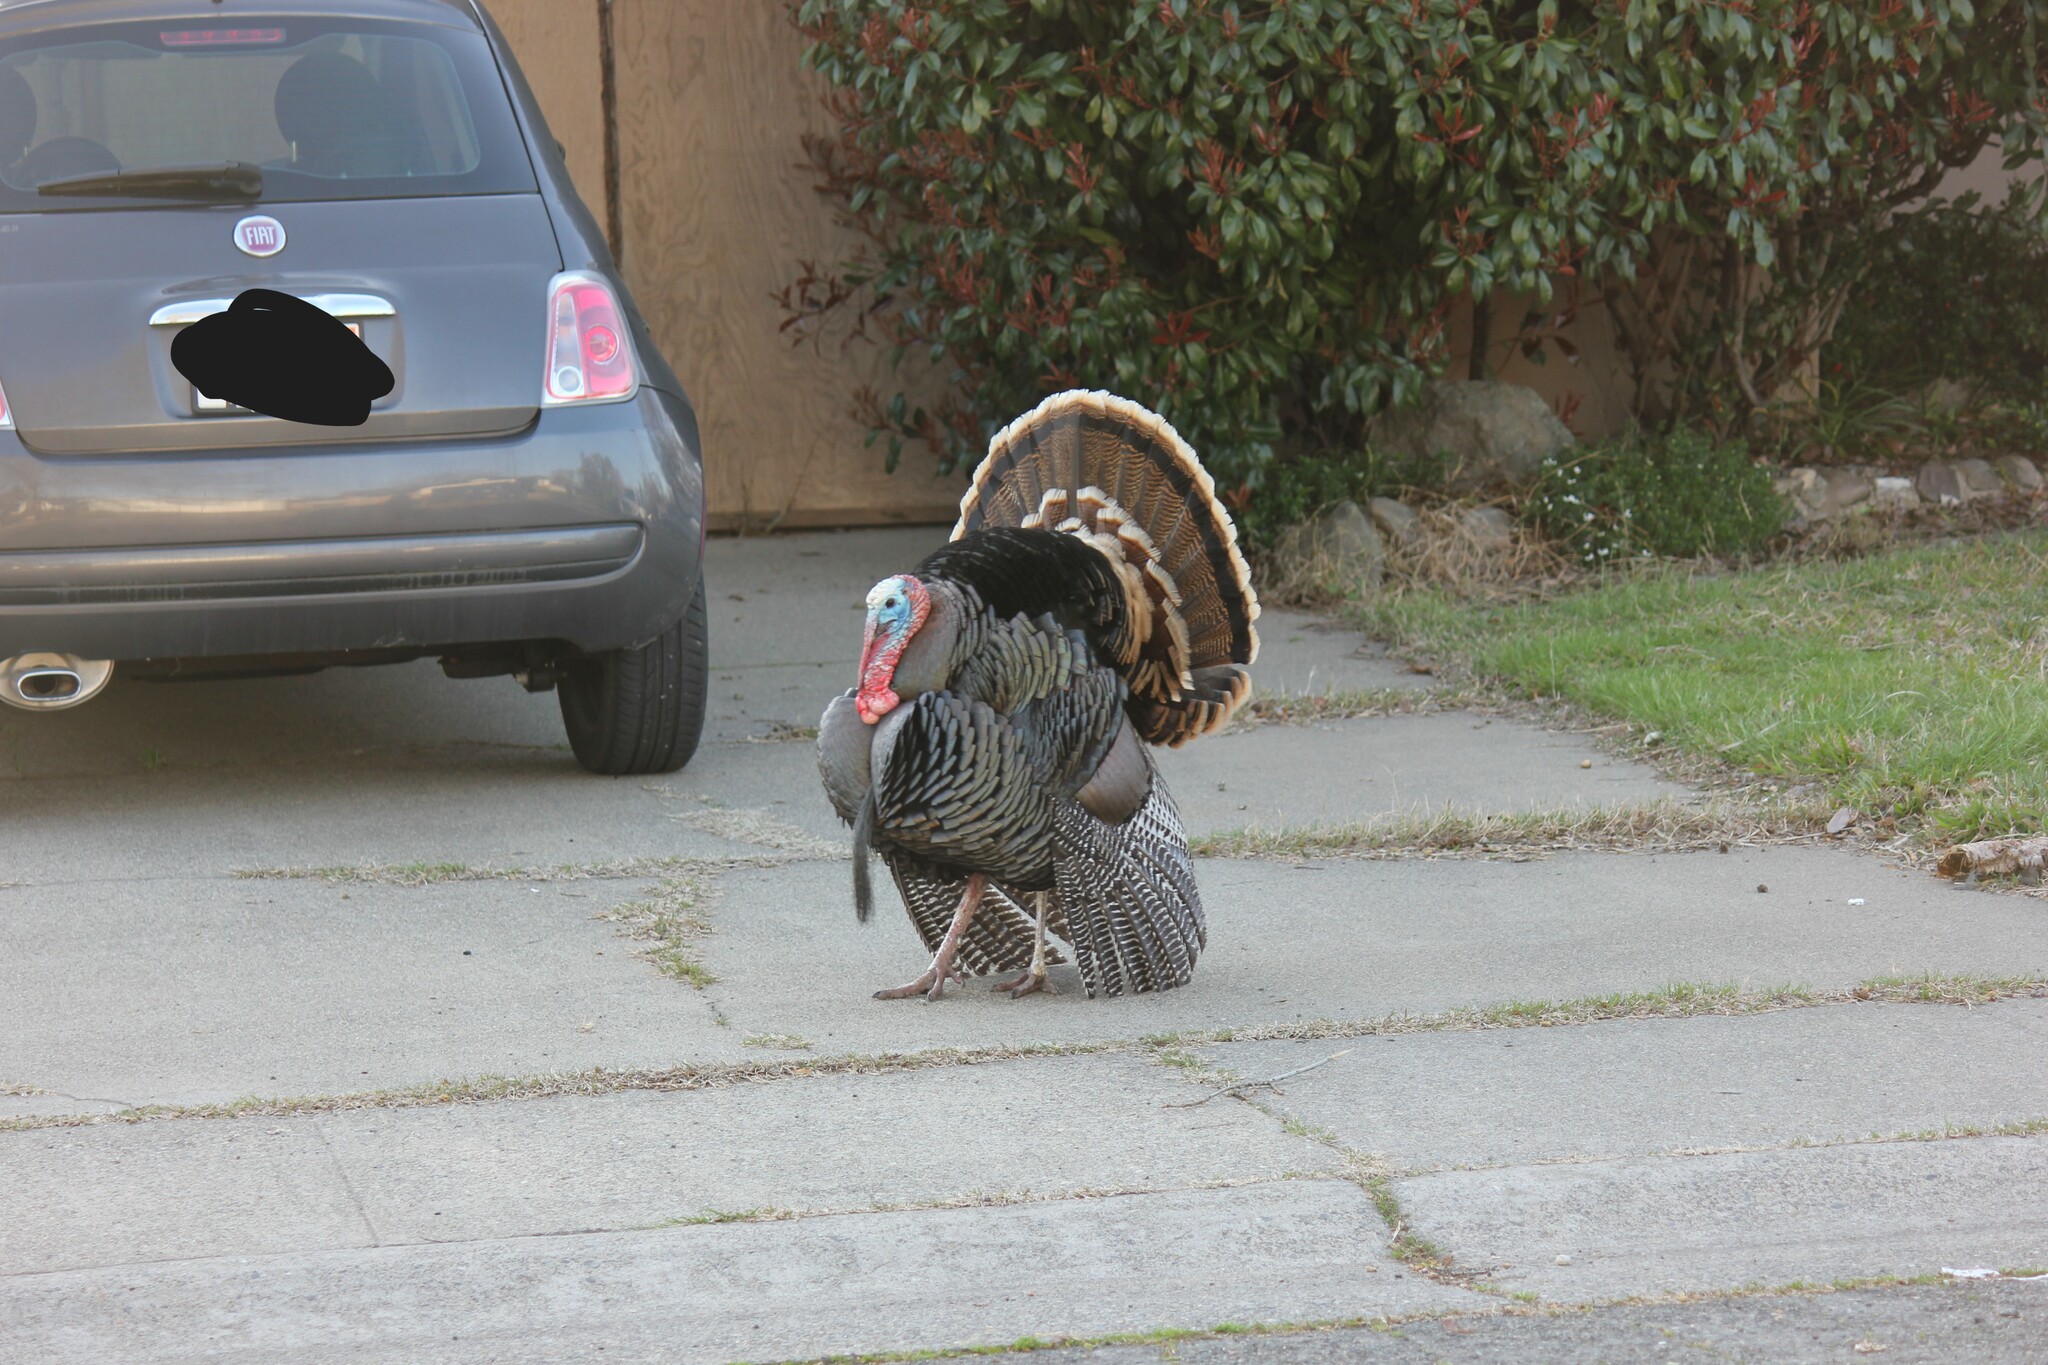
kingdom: Animalia
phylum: Chordata
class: Aves
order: Galliformes
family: Phasianidae
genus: Meleagris
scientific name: Meleagris gallopavo
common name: Wild turkey
